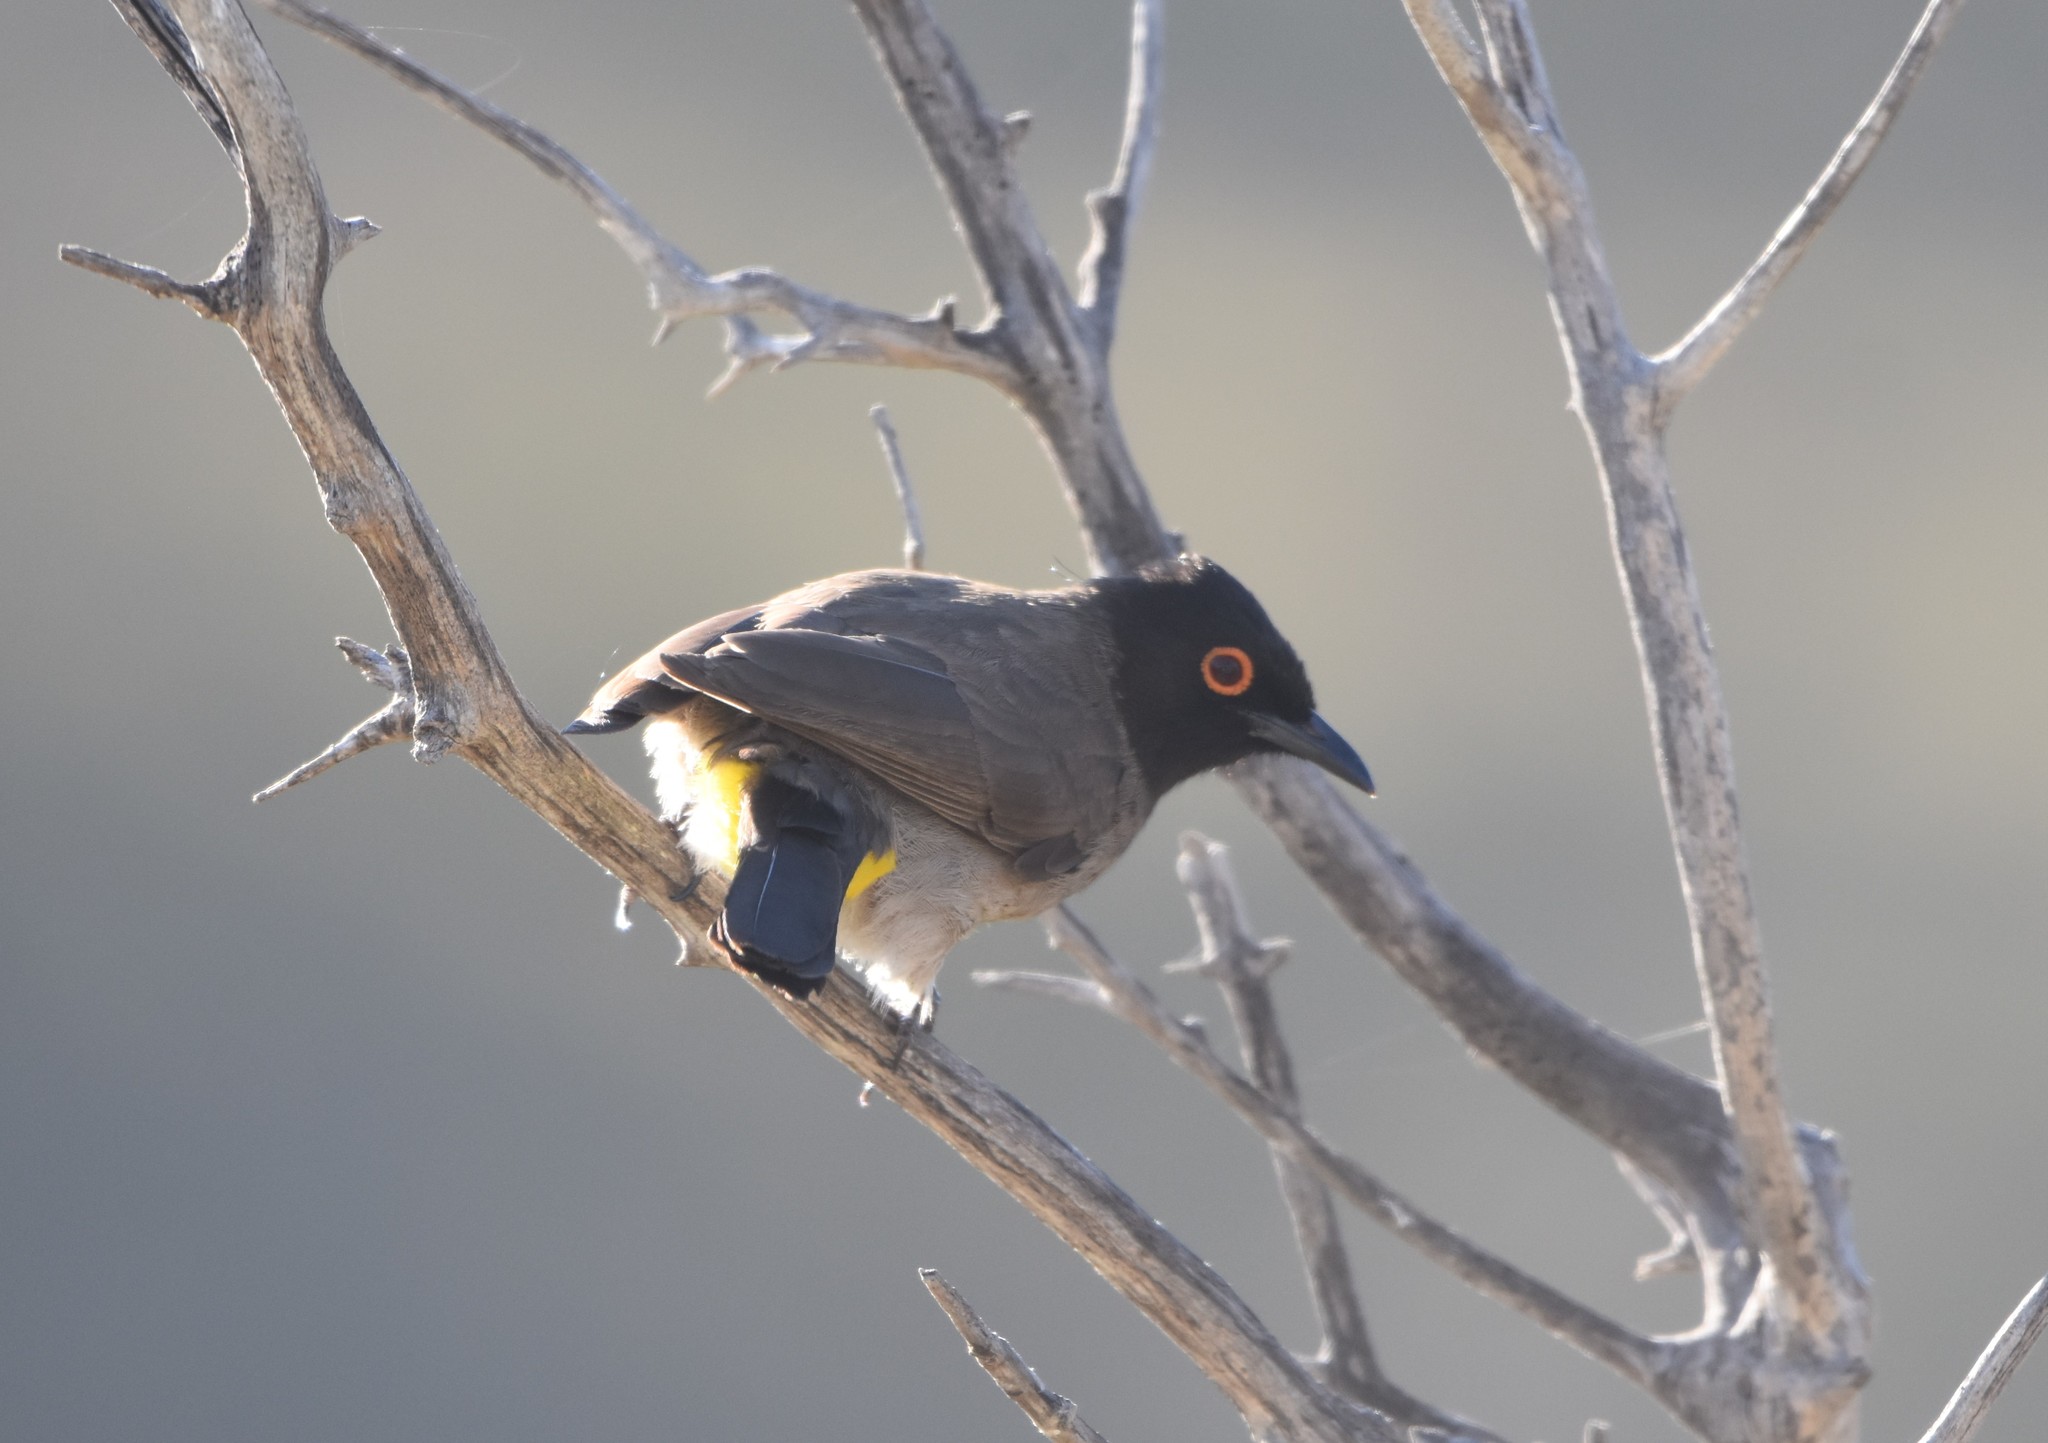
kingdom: Animalia
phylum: Chordata
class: Aves
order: Passeriformes
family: Pycnonotidae
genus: Pycnonotus
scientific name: Pycnonotus nigricans
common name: African red-eyed bulbul
